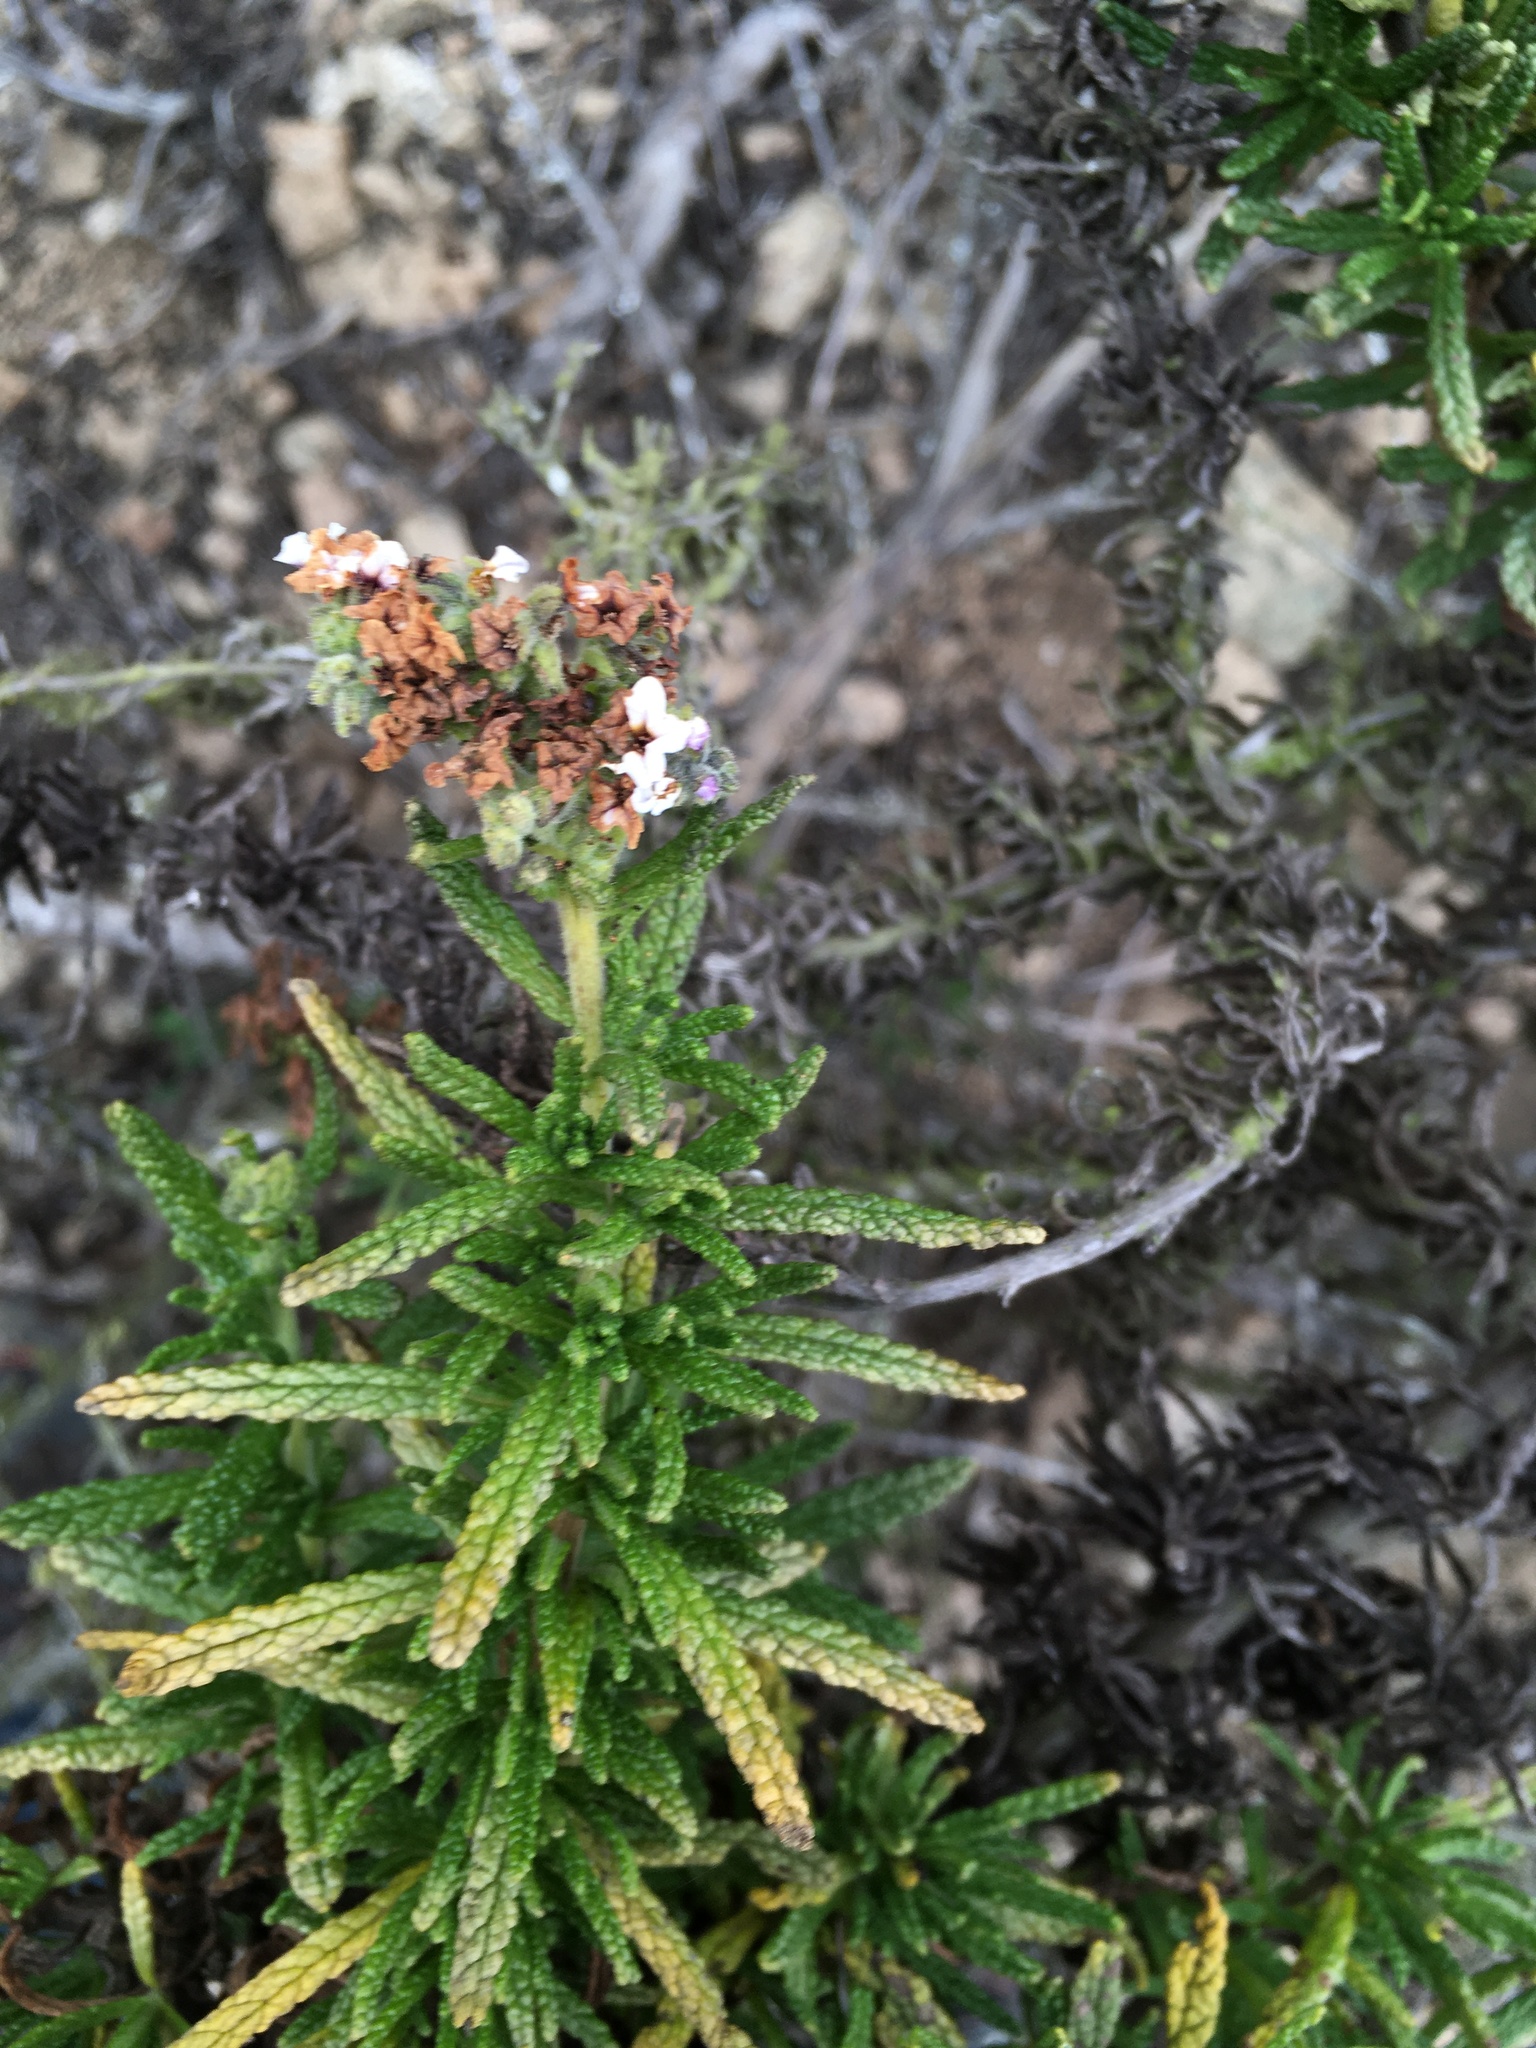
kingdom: Plantae
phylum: Tracheophyta
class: Magnoliopsida
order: Boraginales
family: Heliotropiaceae
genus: Heliotropium
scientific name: Heliotropium taltalense
